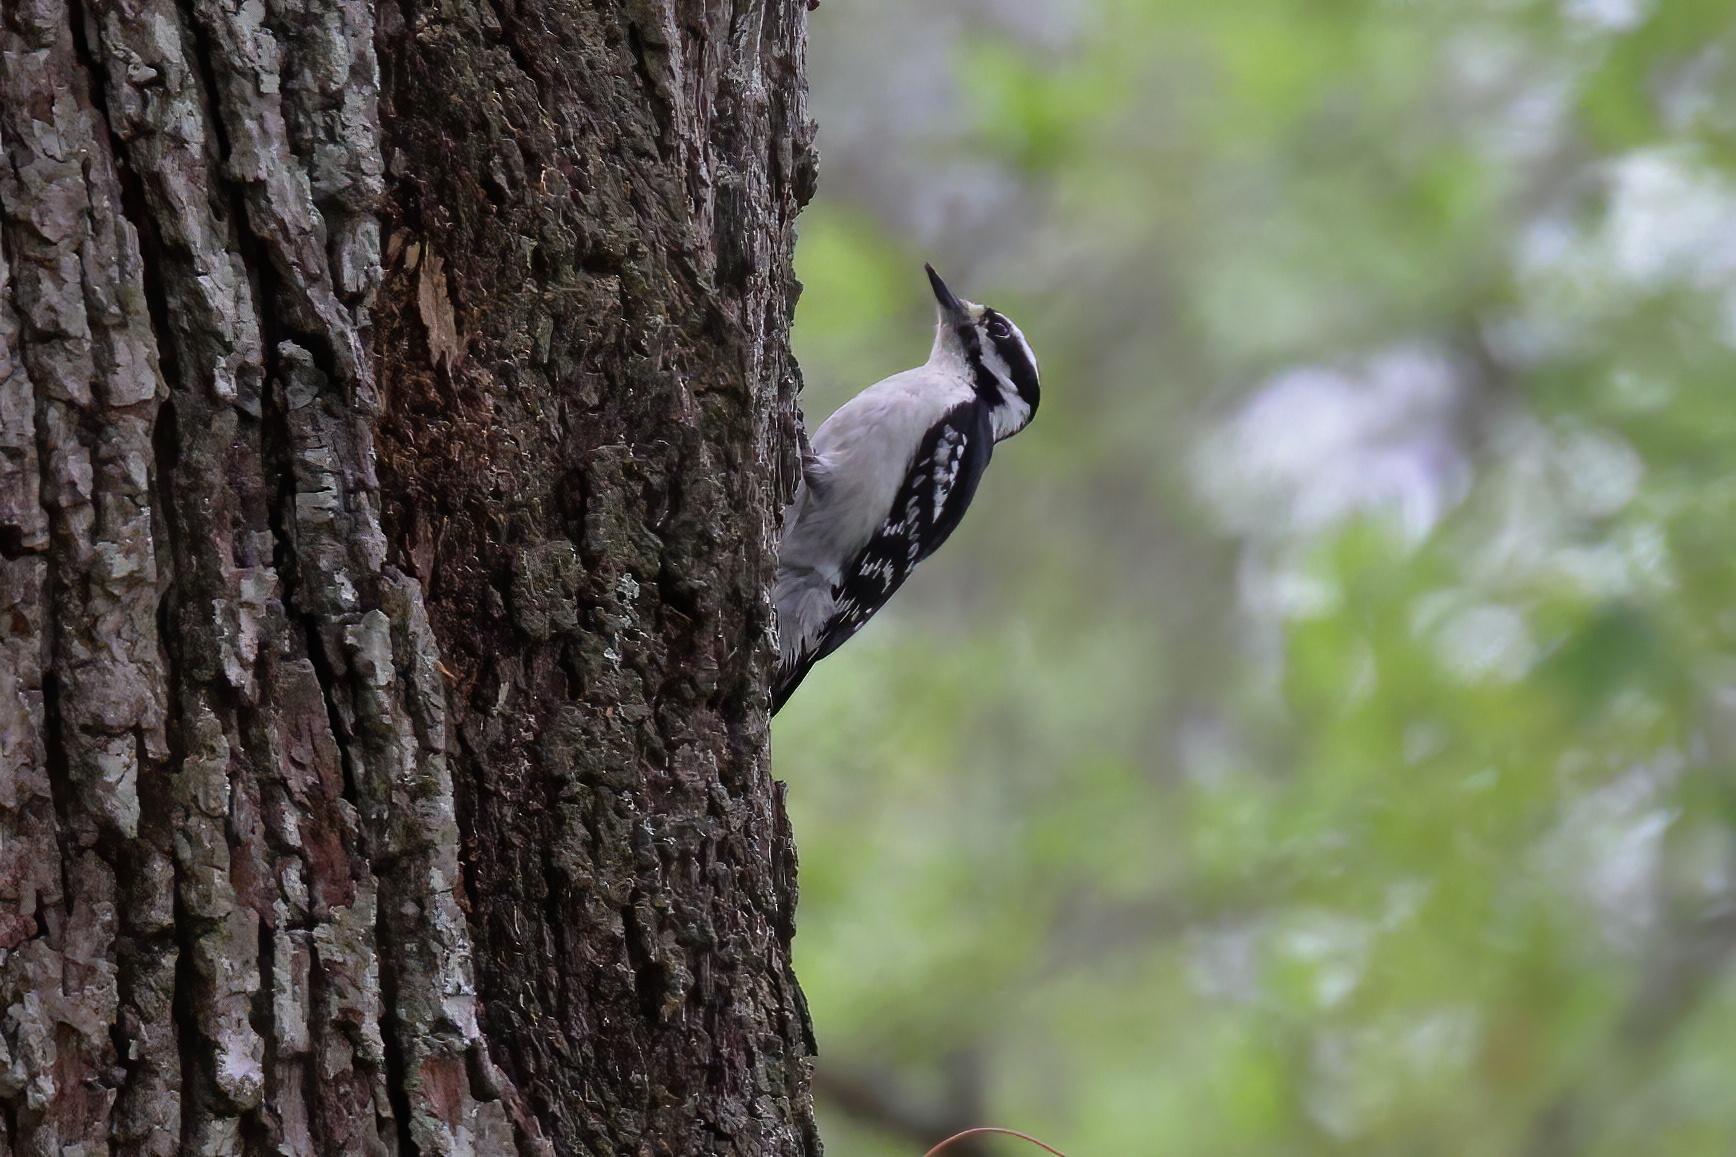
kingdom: Animalia
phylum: Chordata
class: Aves
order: Piciformes
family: Picidae
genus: Dryobates
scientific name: Dryobates pubescens
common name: Downy woodpecker
